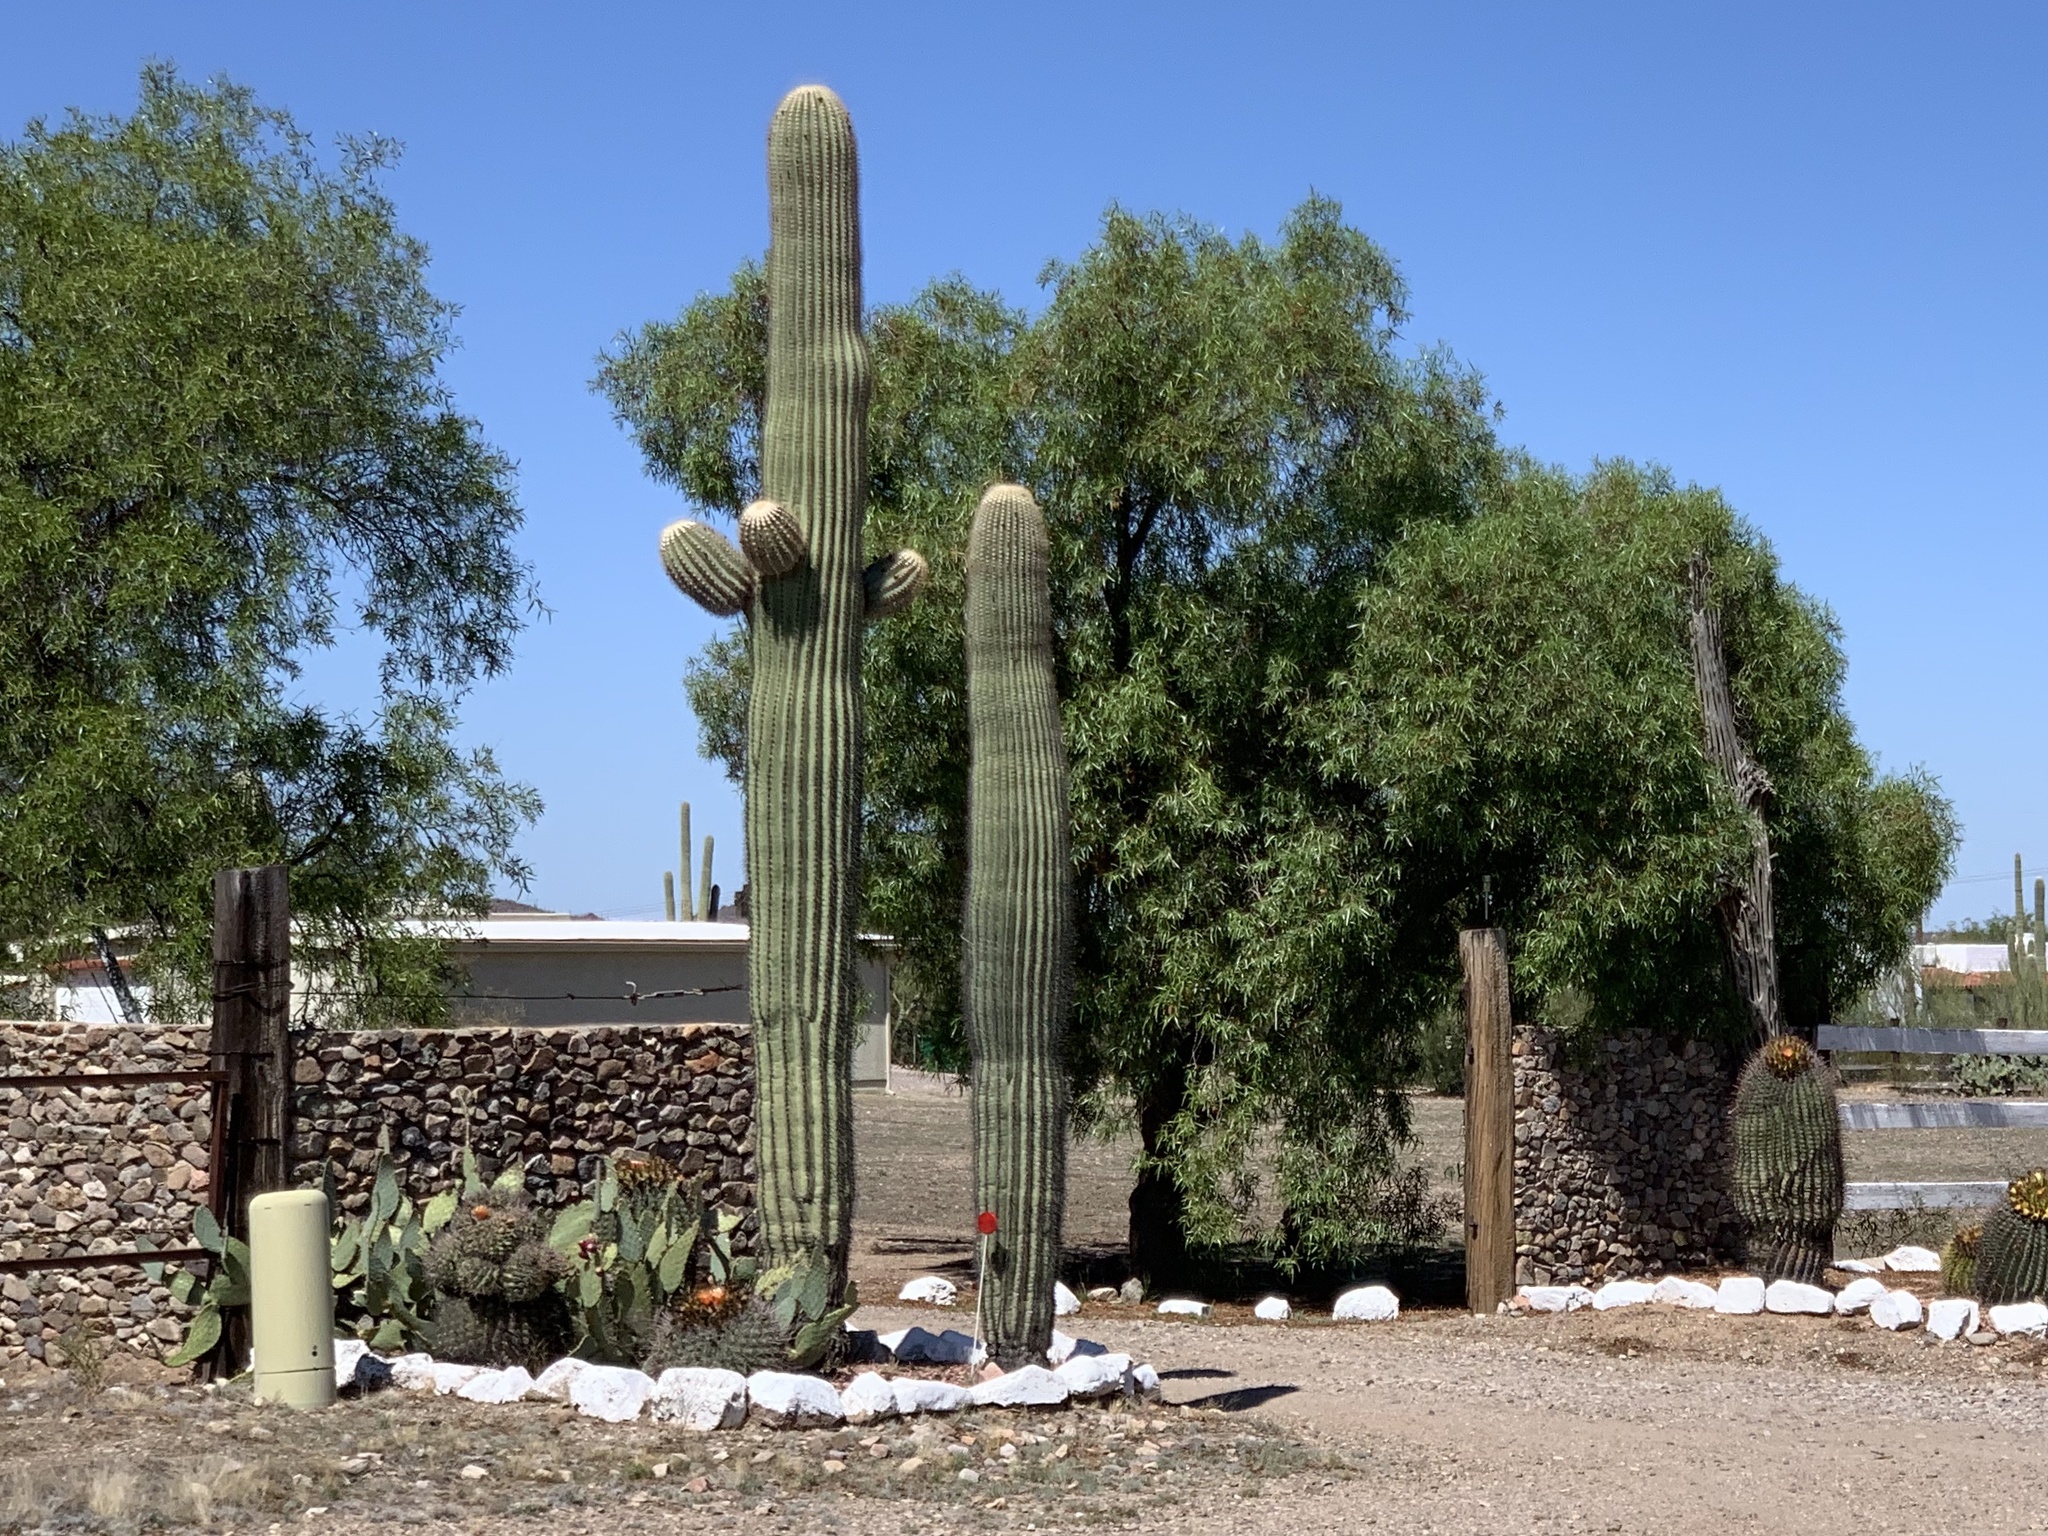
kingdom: Plantae
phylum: Tracheophyta
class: Magnoliopsida
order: Caryophyllales
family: Cactaceae
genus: Carnegiea
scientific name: Carnegiea gigantea
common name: Saguaro
